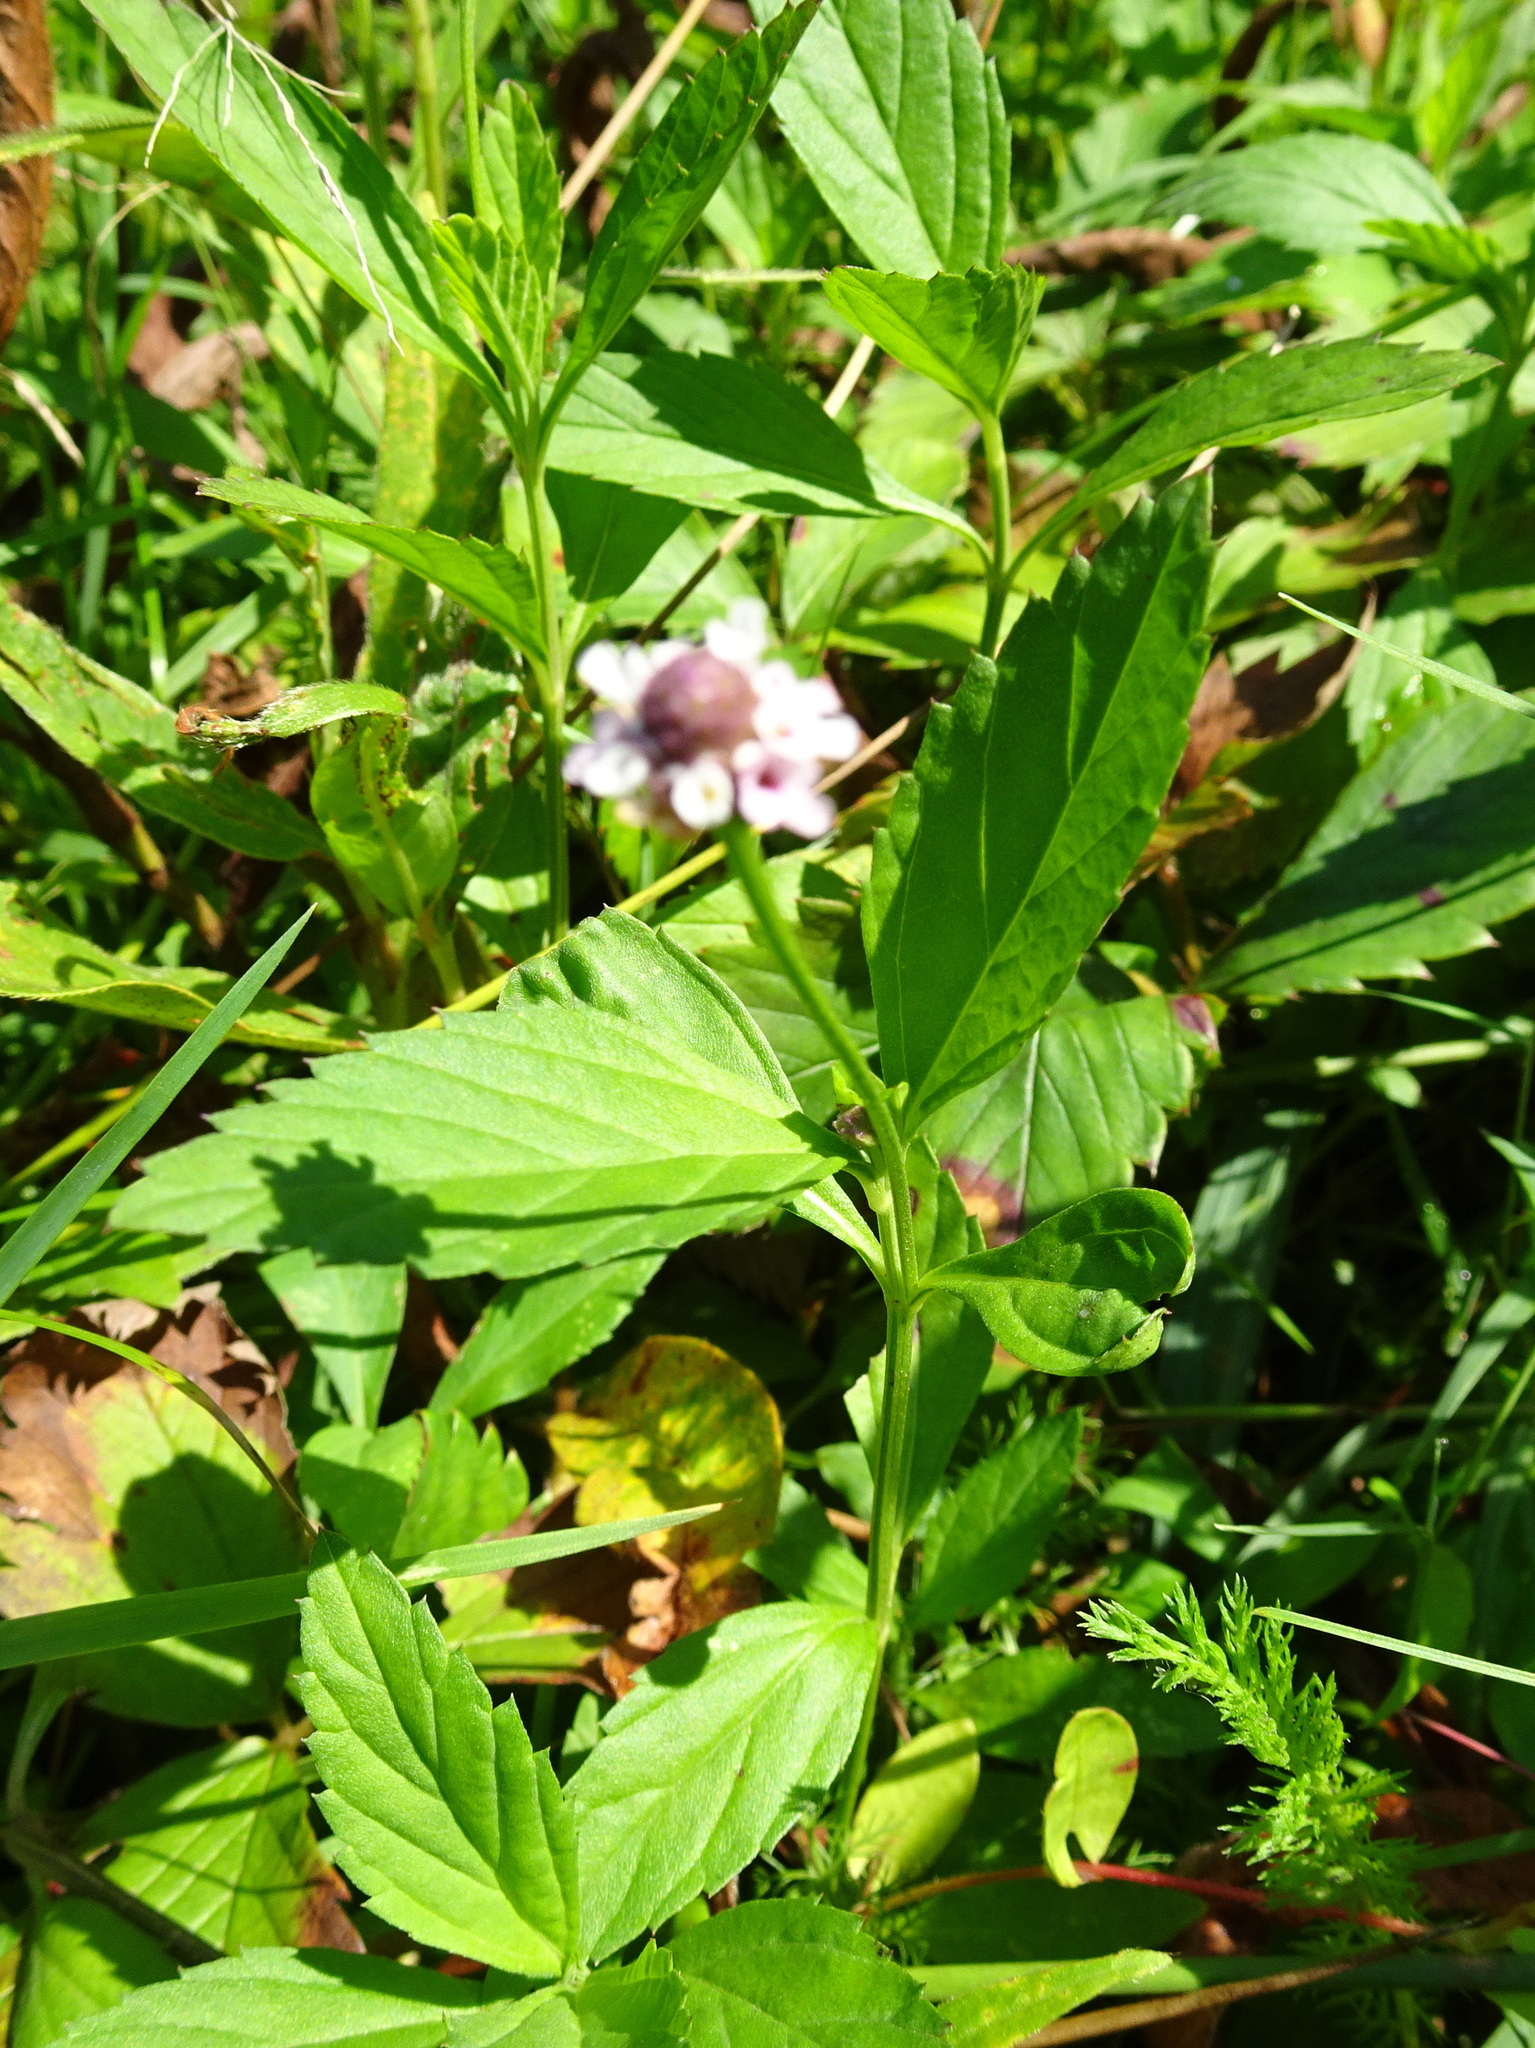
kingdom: Plantae
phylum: Tracheophyta
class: Magnoliopsida
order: Lamiales
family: Verbenaceae
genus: Phyla
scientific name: Phyla lanceolata
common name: Northern fogfruit
